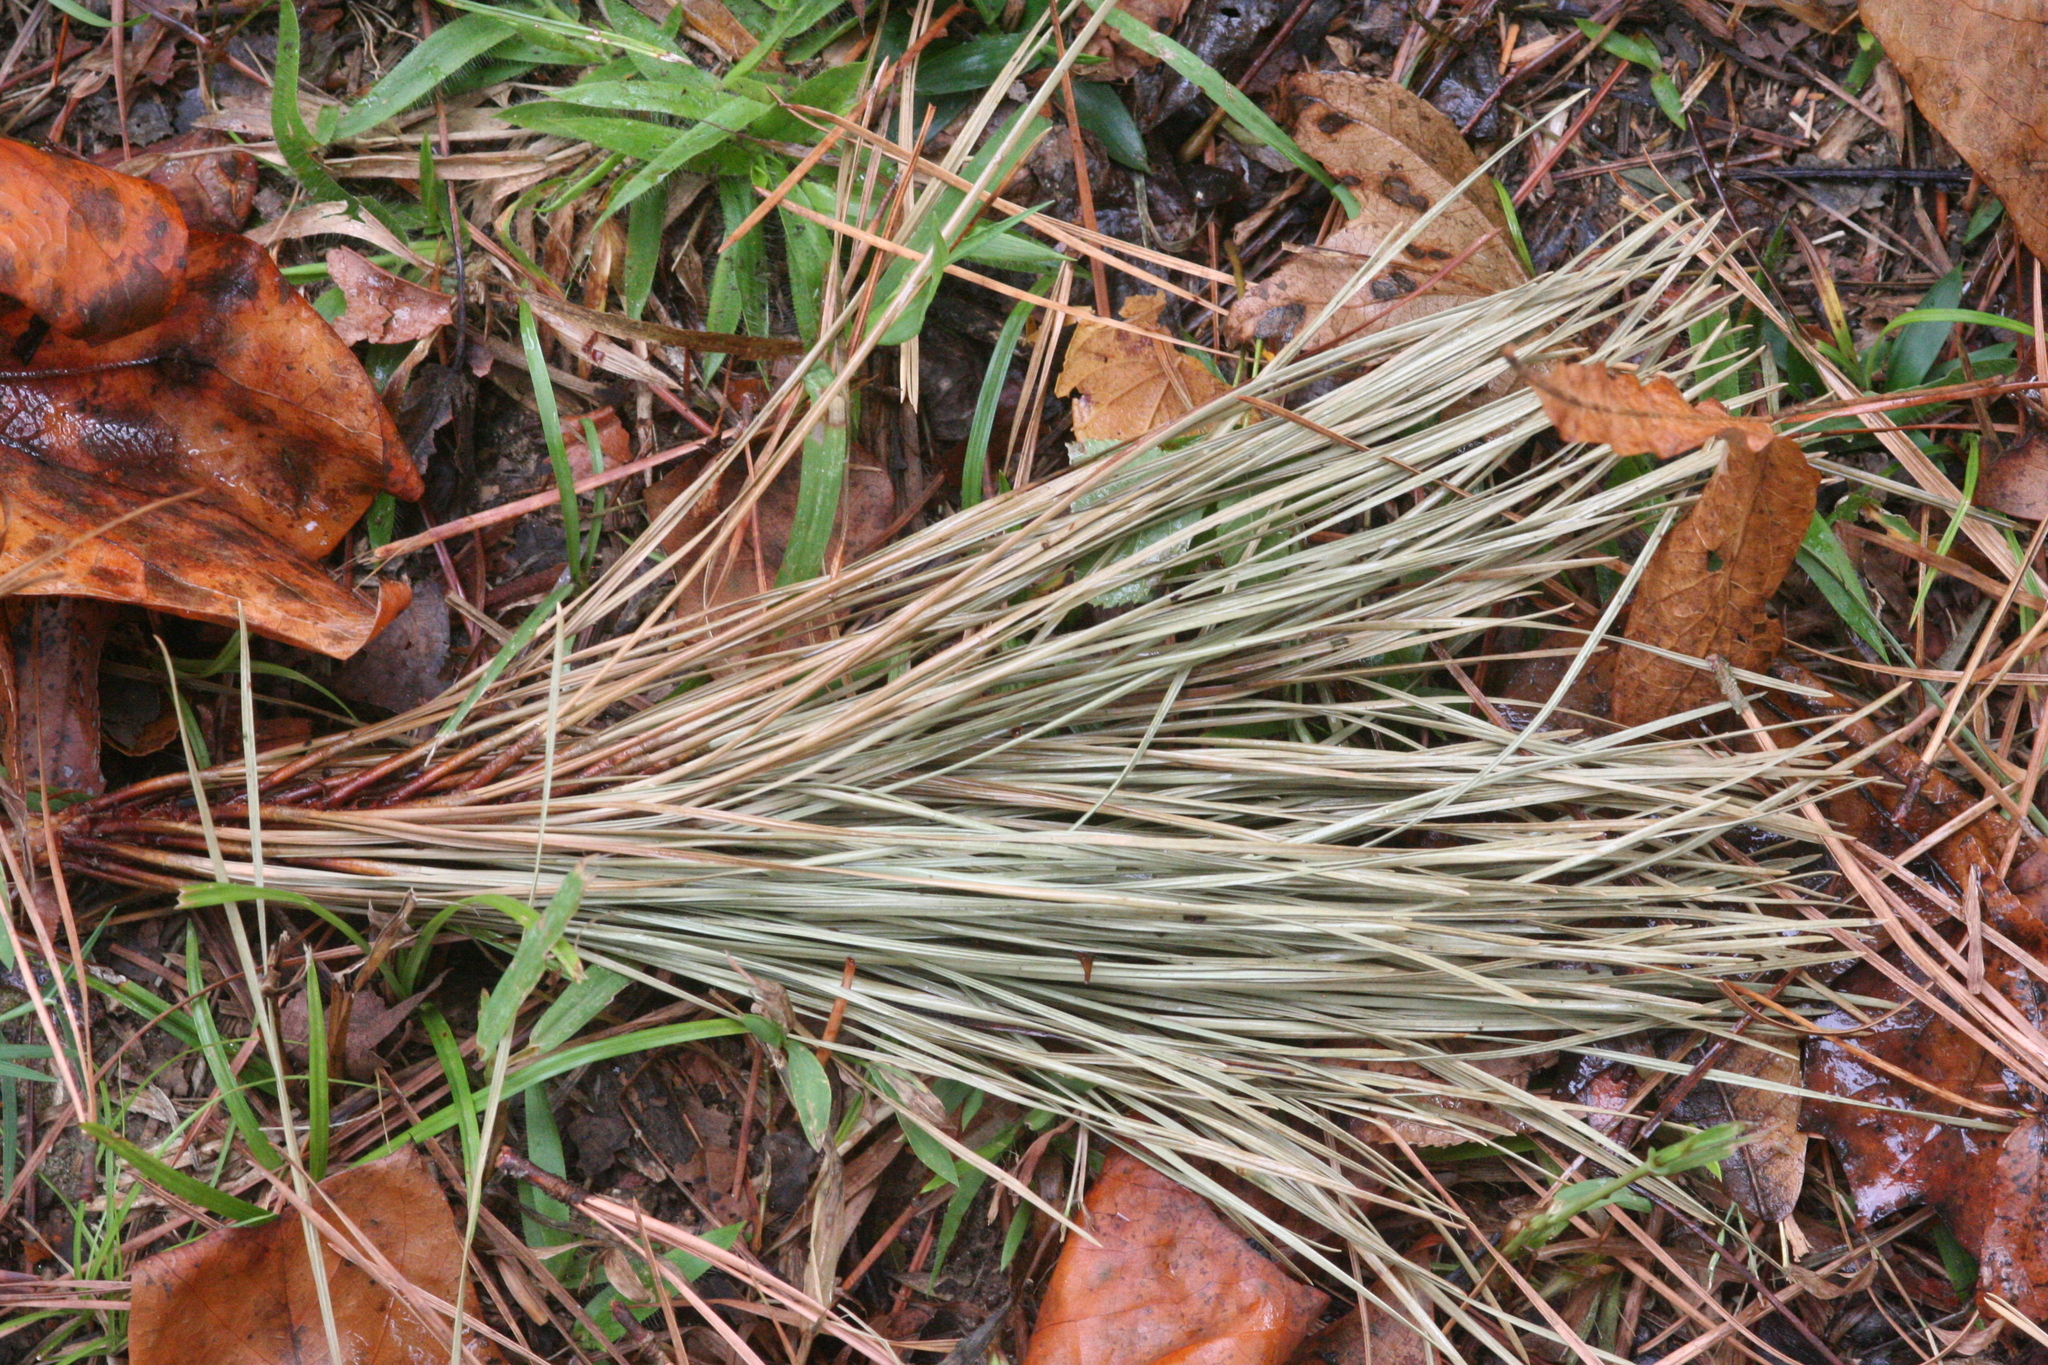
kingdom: Plantae
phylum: Tracheophyta
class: Pinopsida
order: Pinales
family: Pinaceae
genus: Pinus
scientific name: Pinus taeda
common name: Loblolly pine
